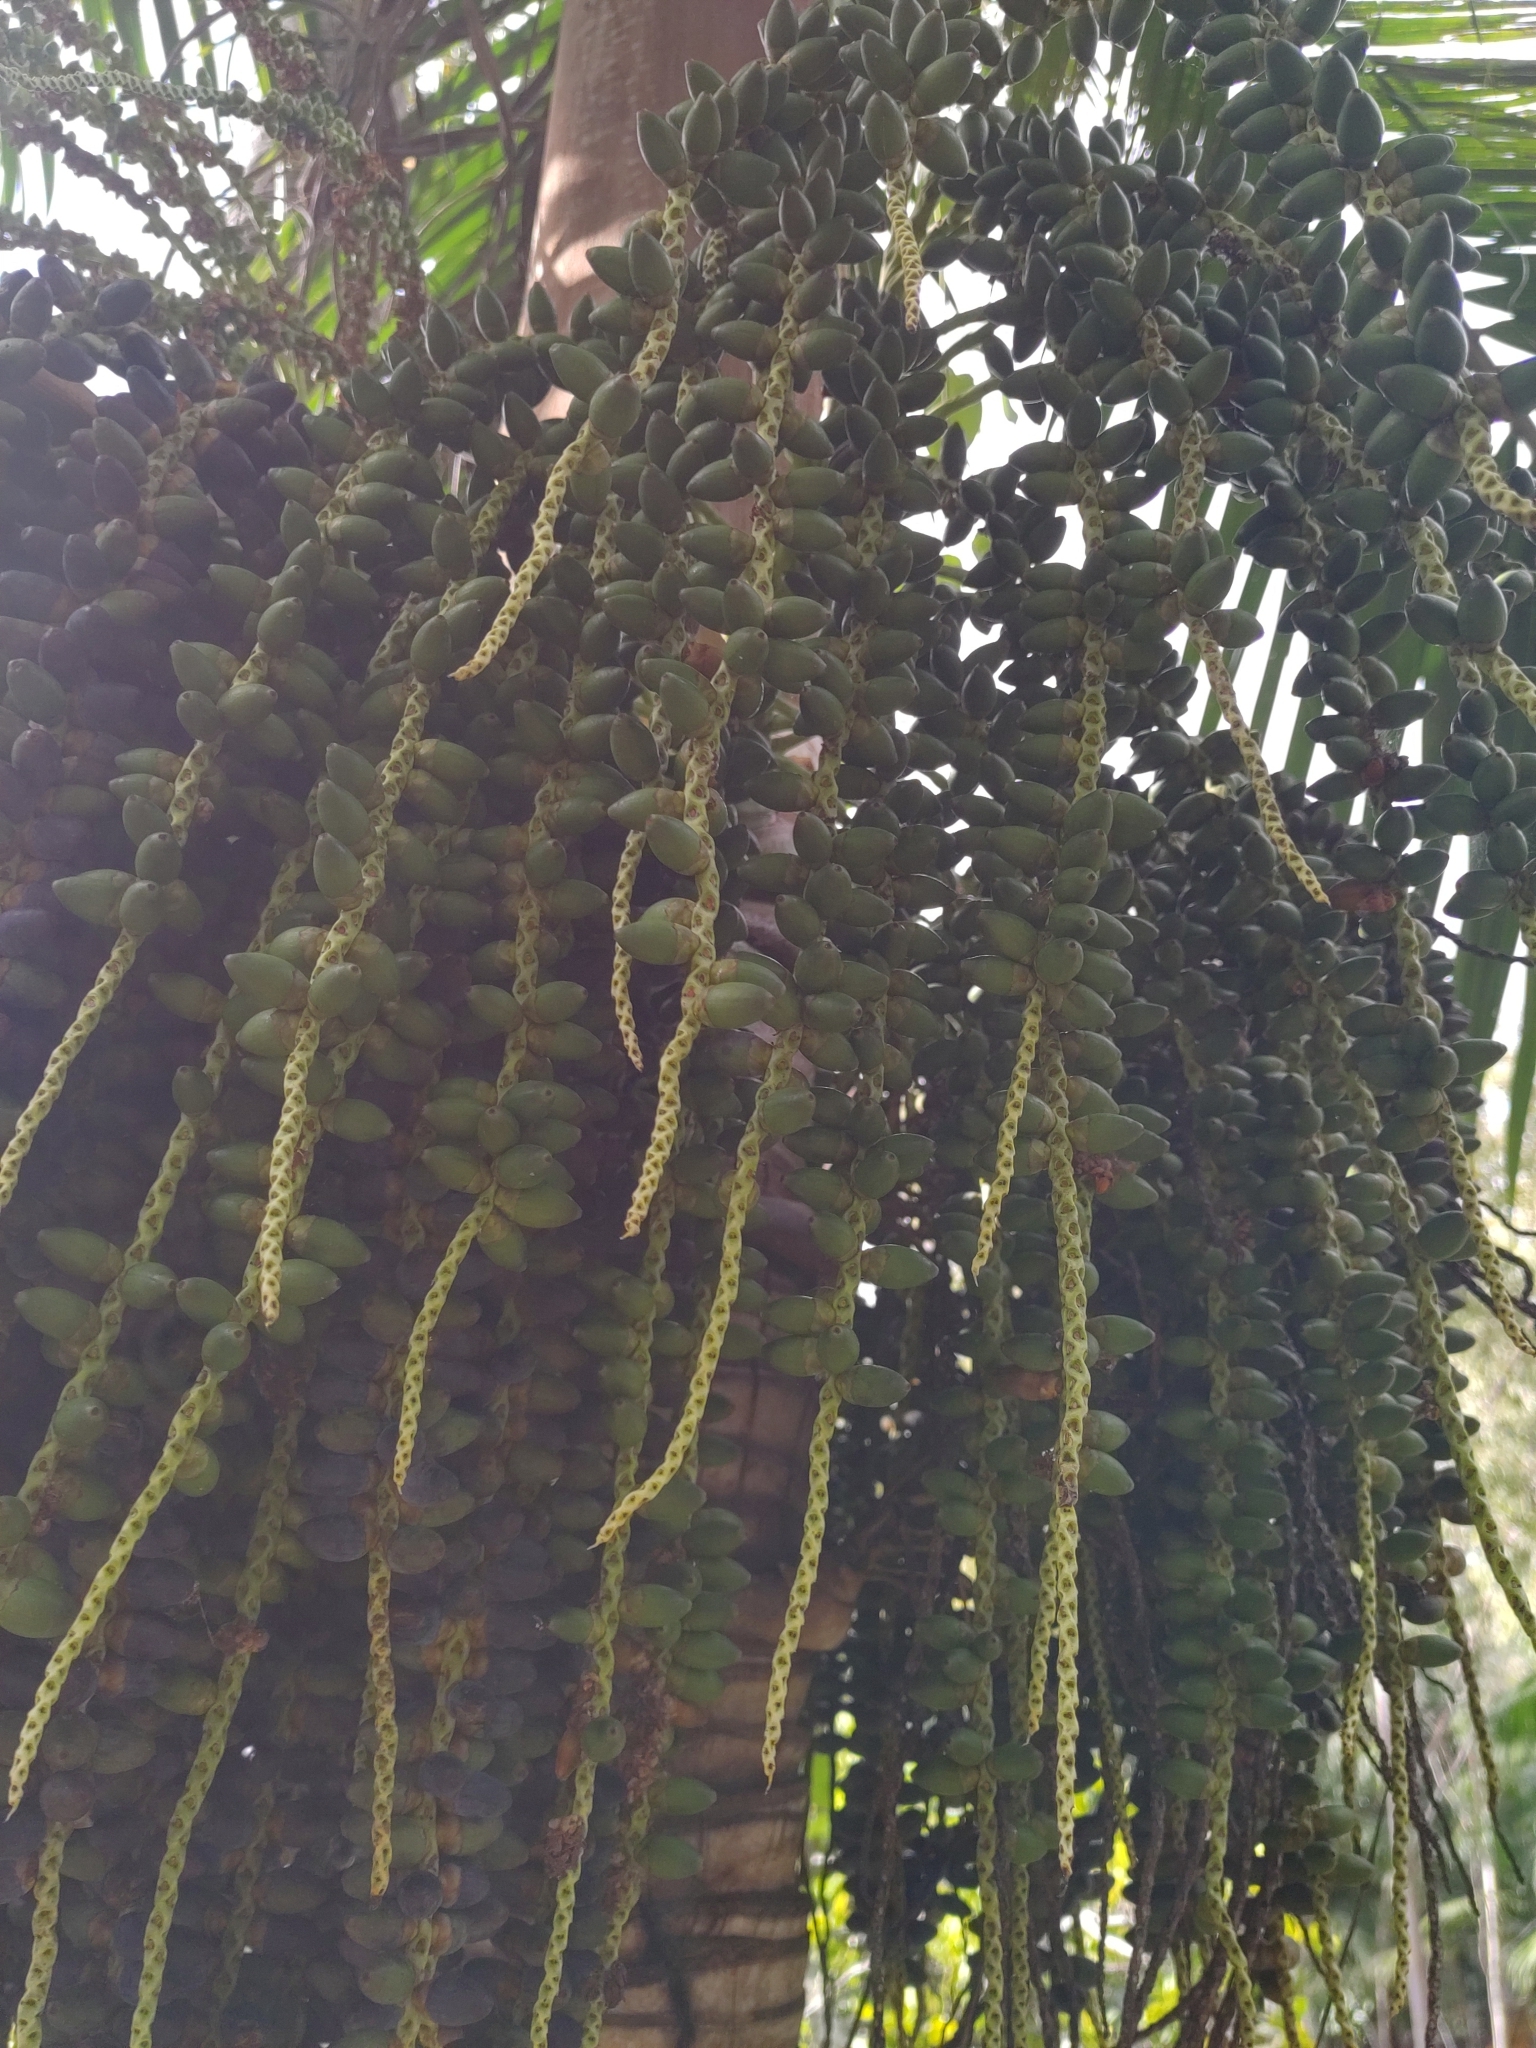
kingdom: Plantae
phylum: Tracheophyta
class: Liliopsida
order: Arecales
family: Arecaceae
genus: Dictyosperma
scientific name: Dictyosperma album
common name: Common princess palm
